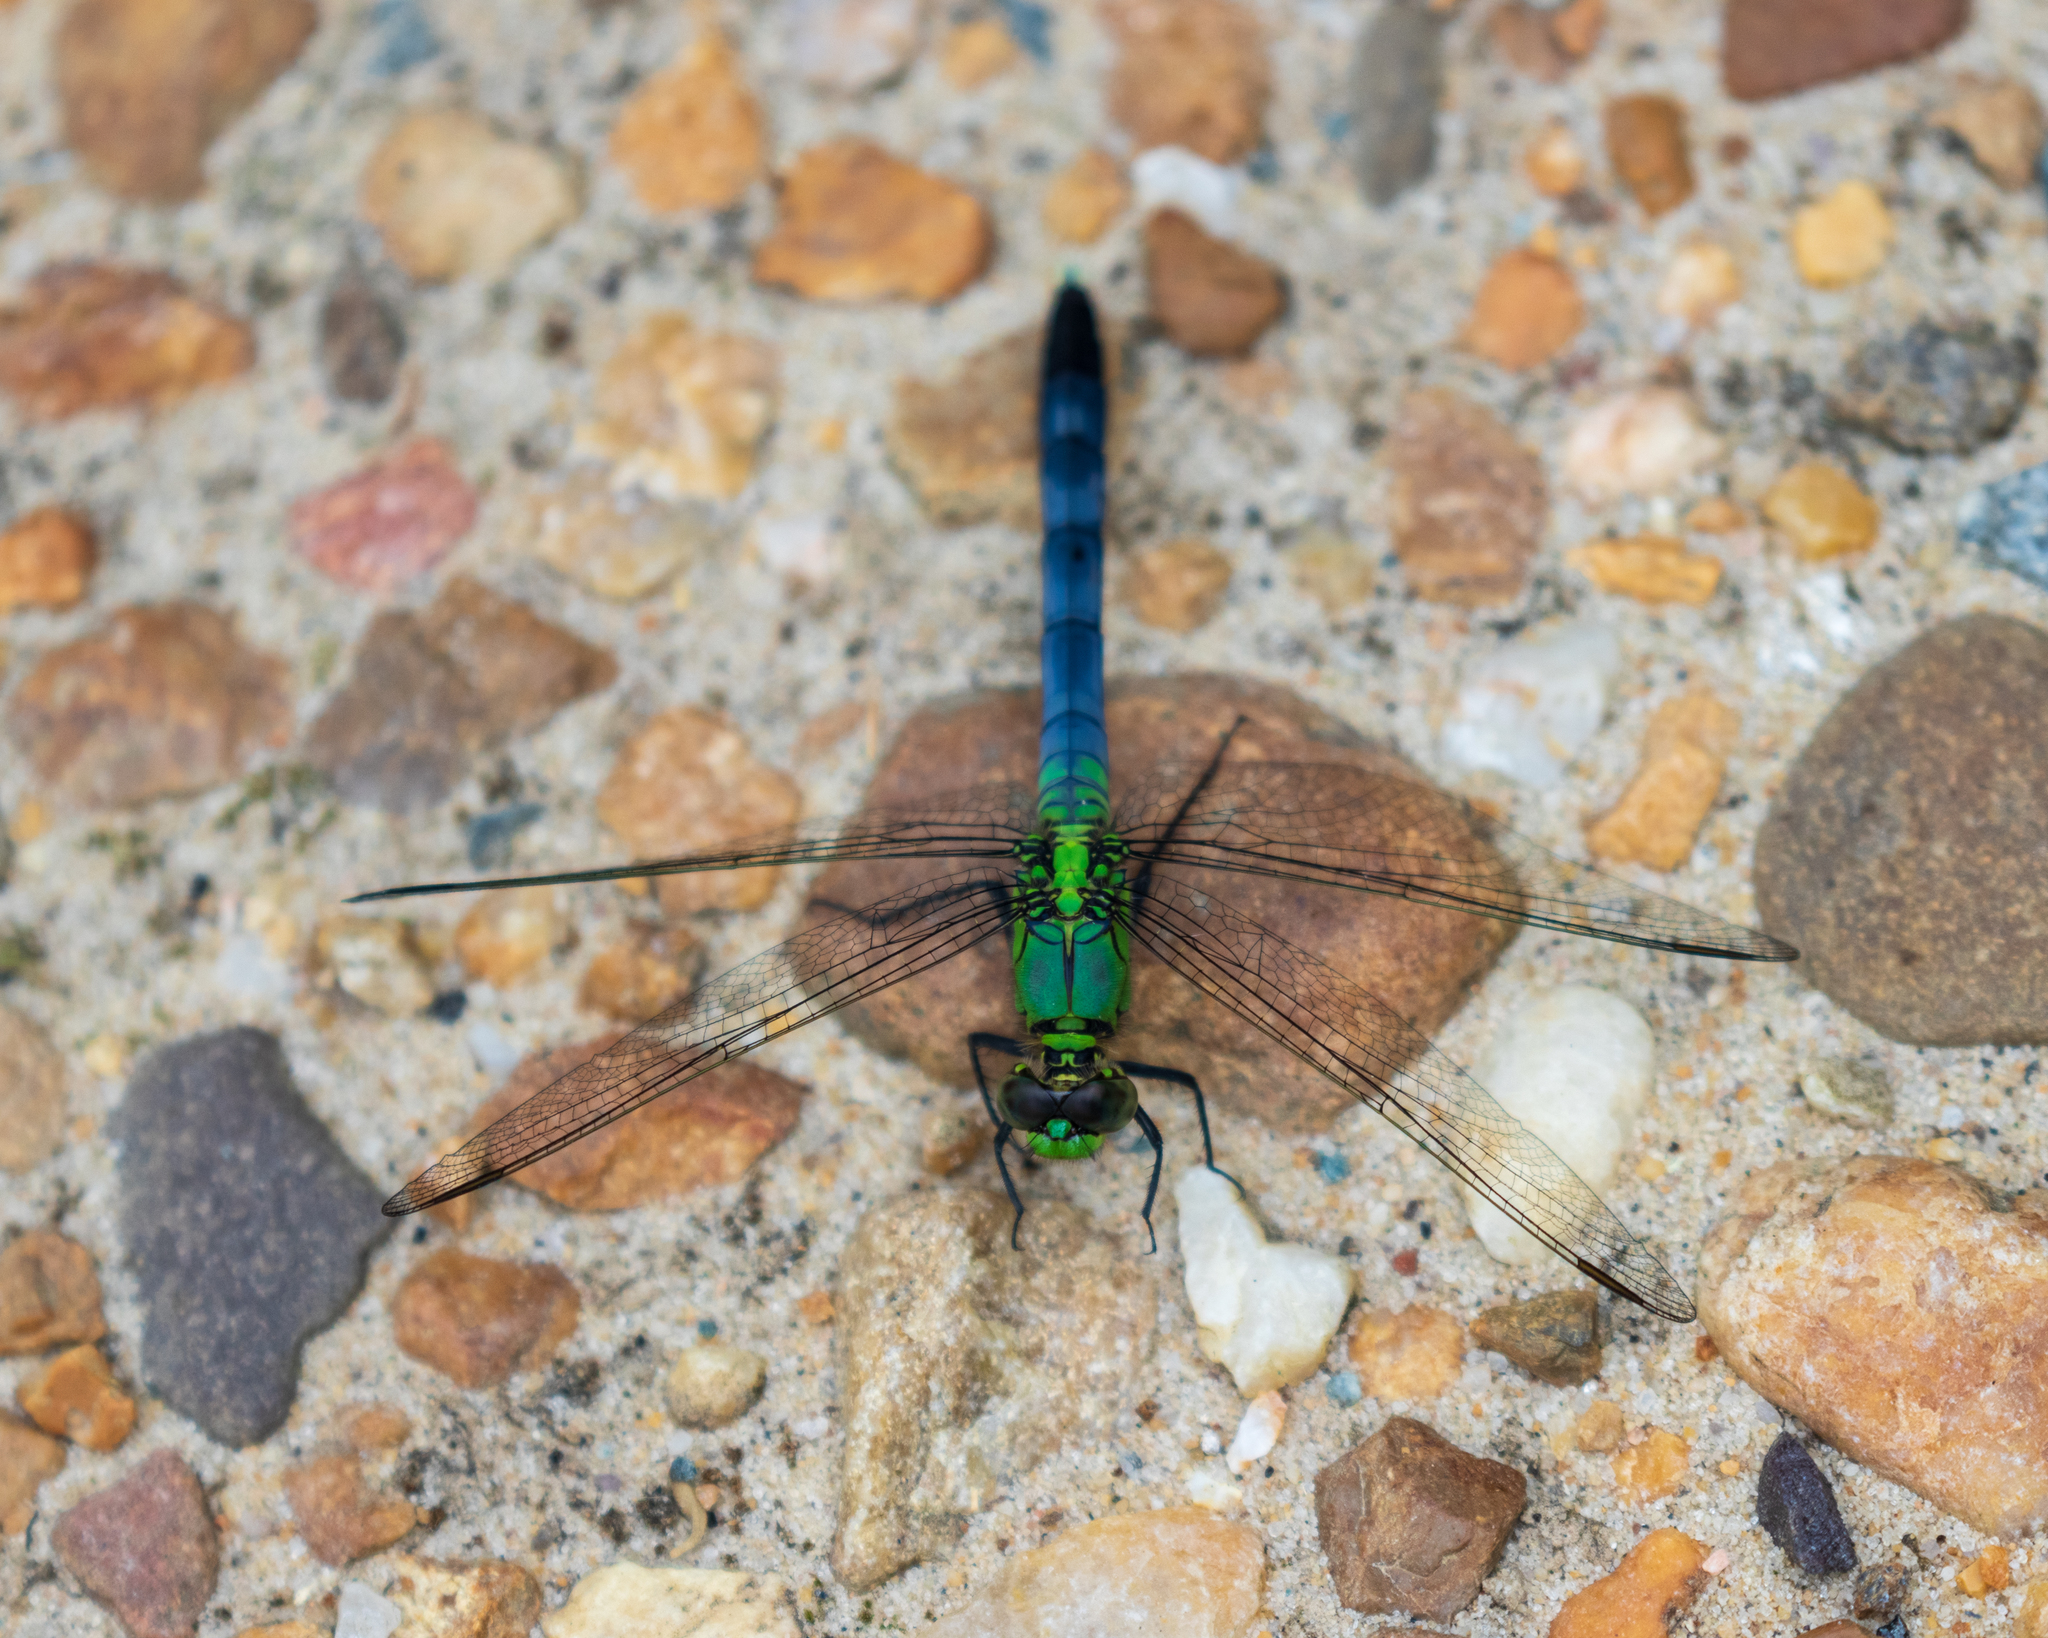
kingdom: Animalia
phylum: Arthropoda
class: Insecta
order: Odonata
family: Libellulidae
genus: Erythemis
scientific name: Erythemis simplicicollis
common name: Eastern pondhawk
